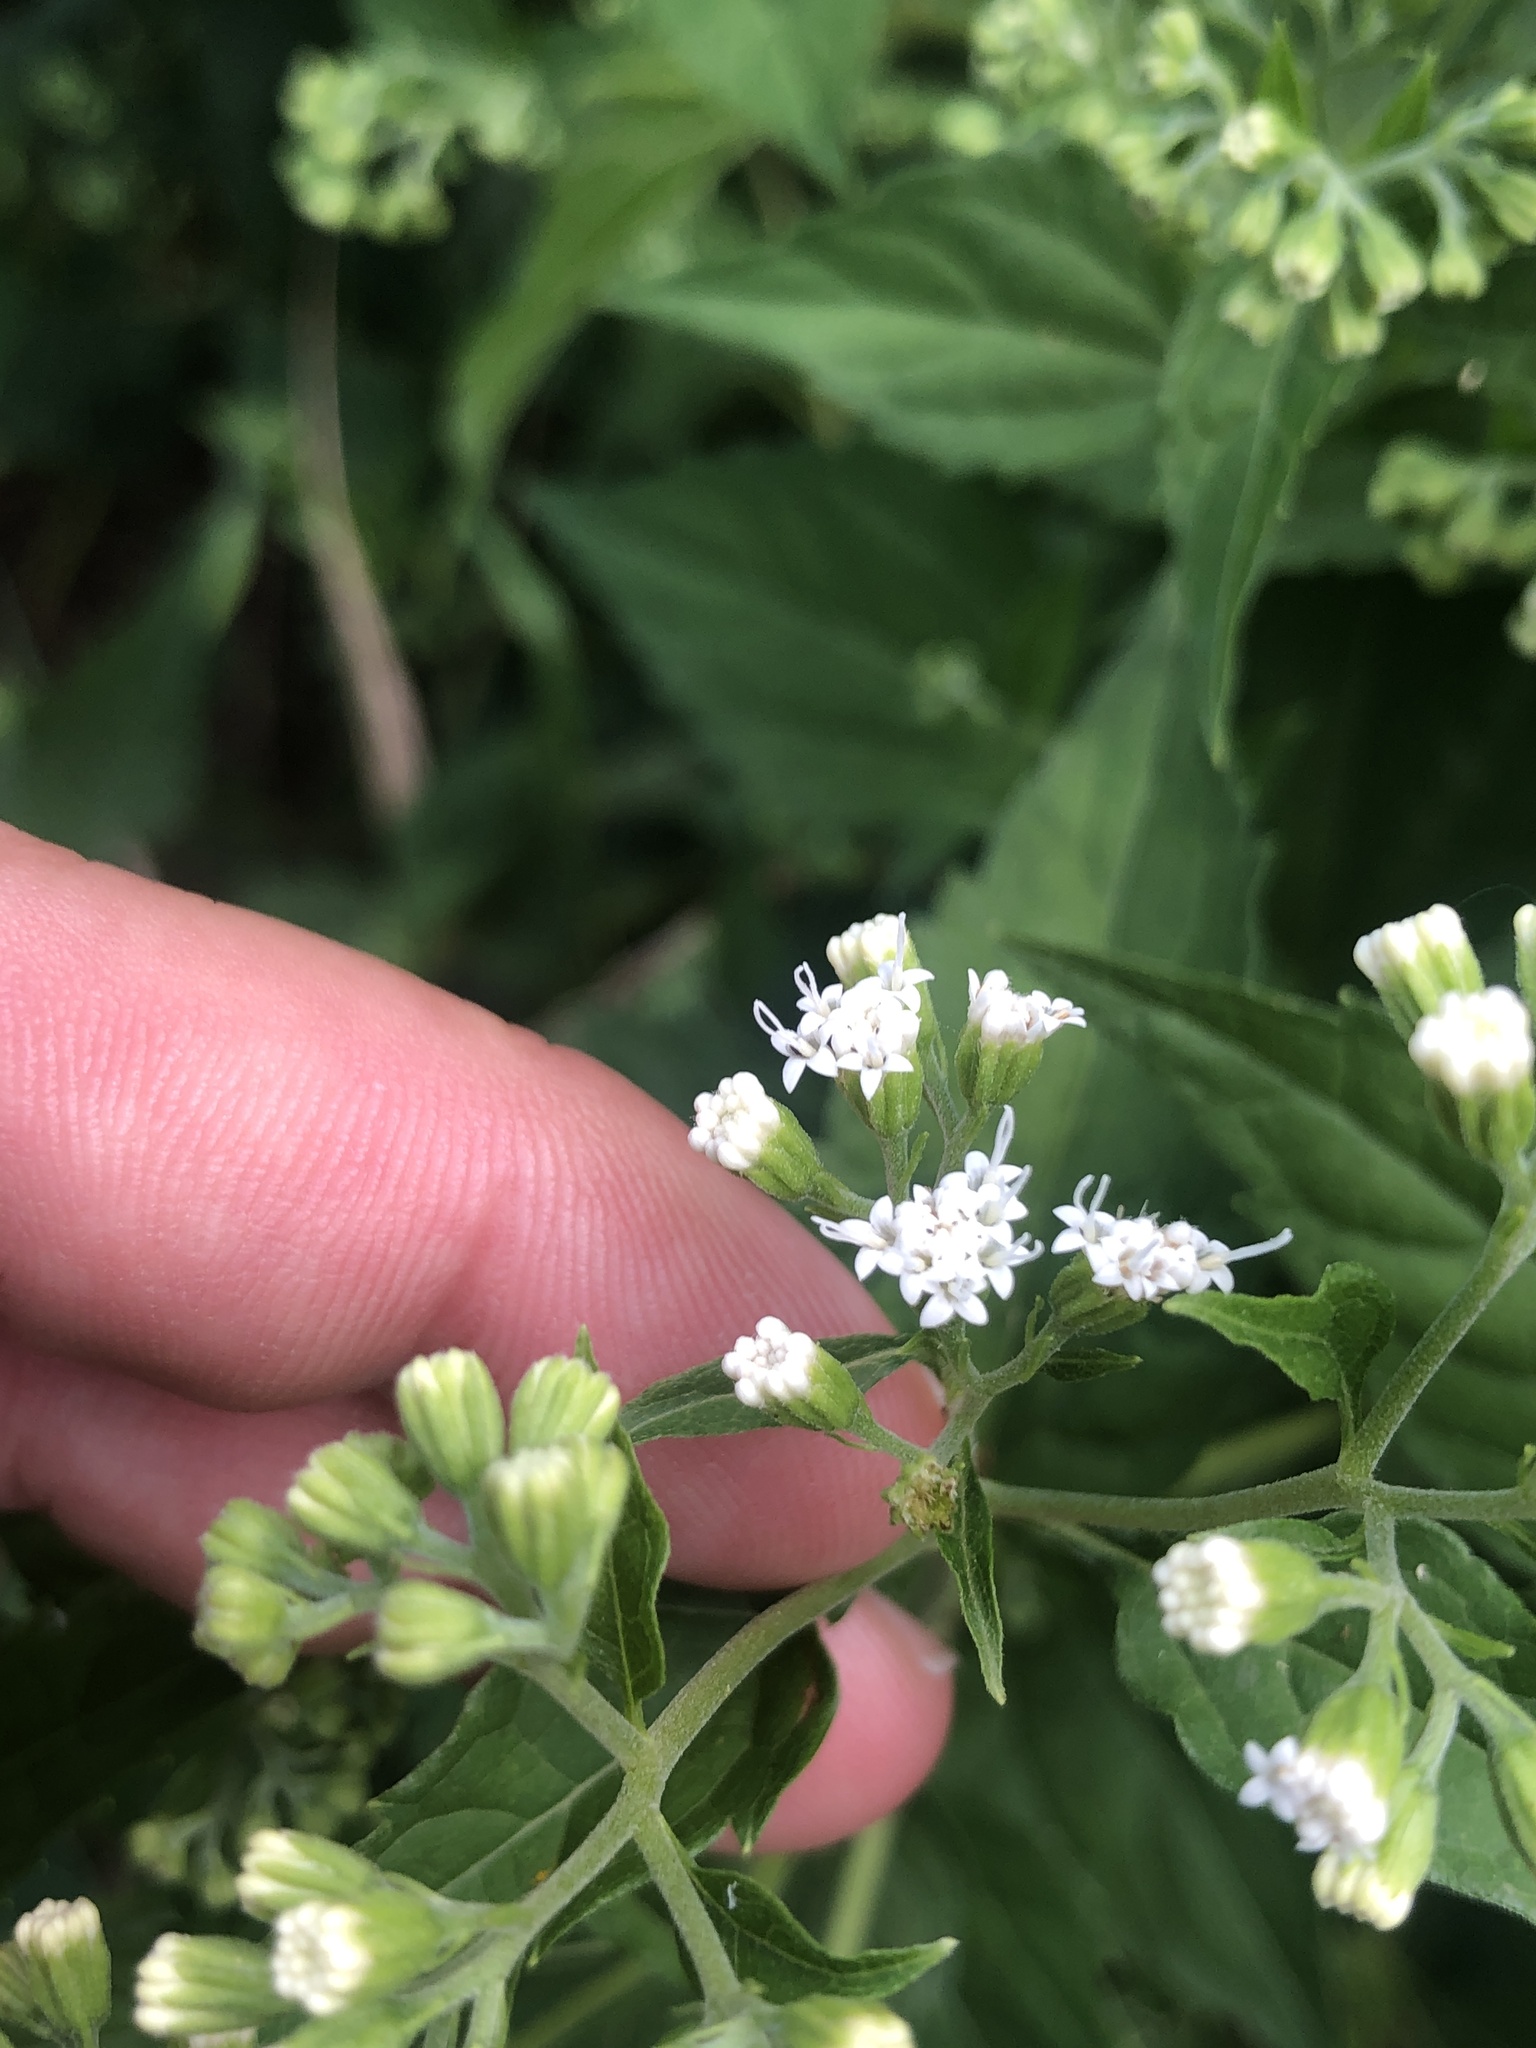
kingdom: Plantae
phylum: Tracheophyta
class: Magnoliopsida
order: Asterales
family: Asteraceae
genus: Ageratina
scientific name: Ageratina altissima
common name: White snakeroot
